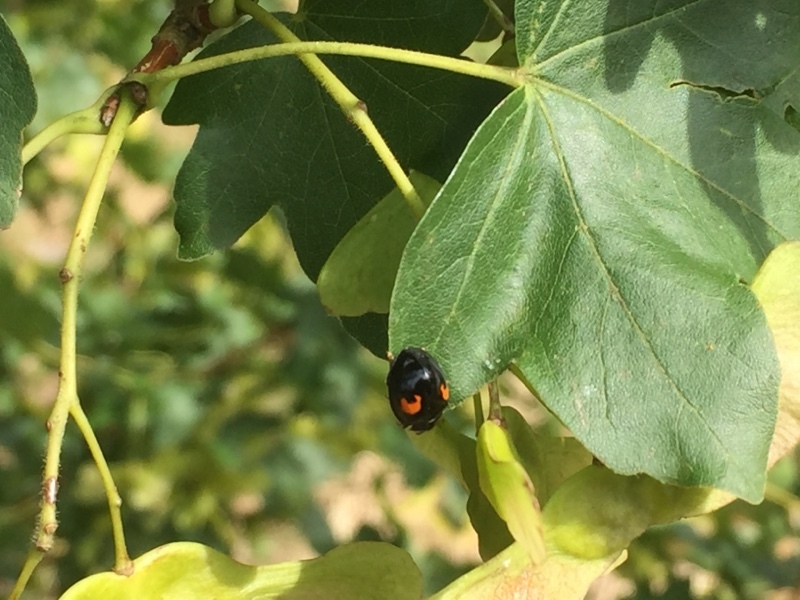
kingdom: Animalia
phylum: Arthropoda
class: Insecta
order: Coleoptera
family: Coccinellidae
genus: Harmonia
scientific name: Harmonia axyridis
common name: Harlequin ladybird
